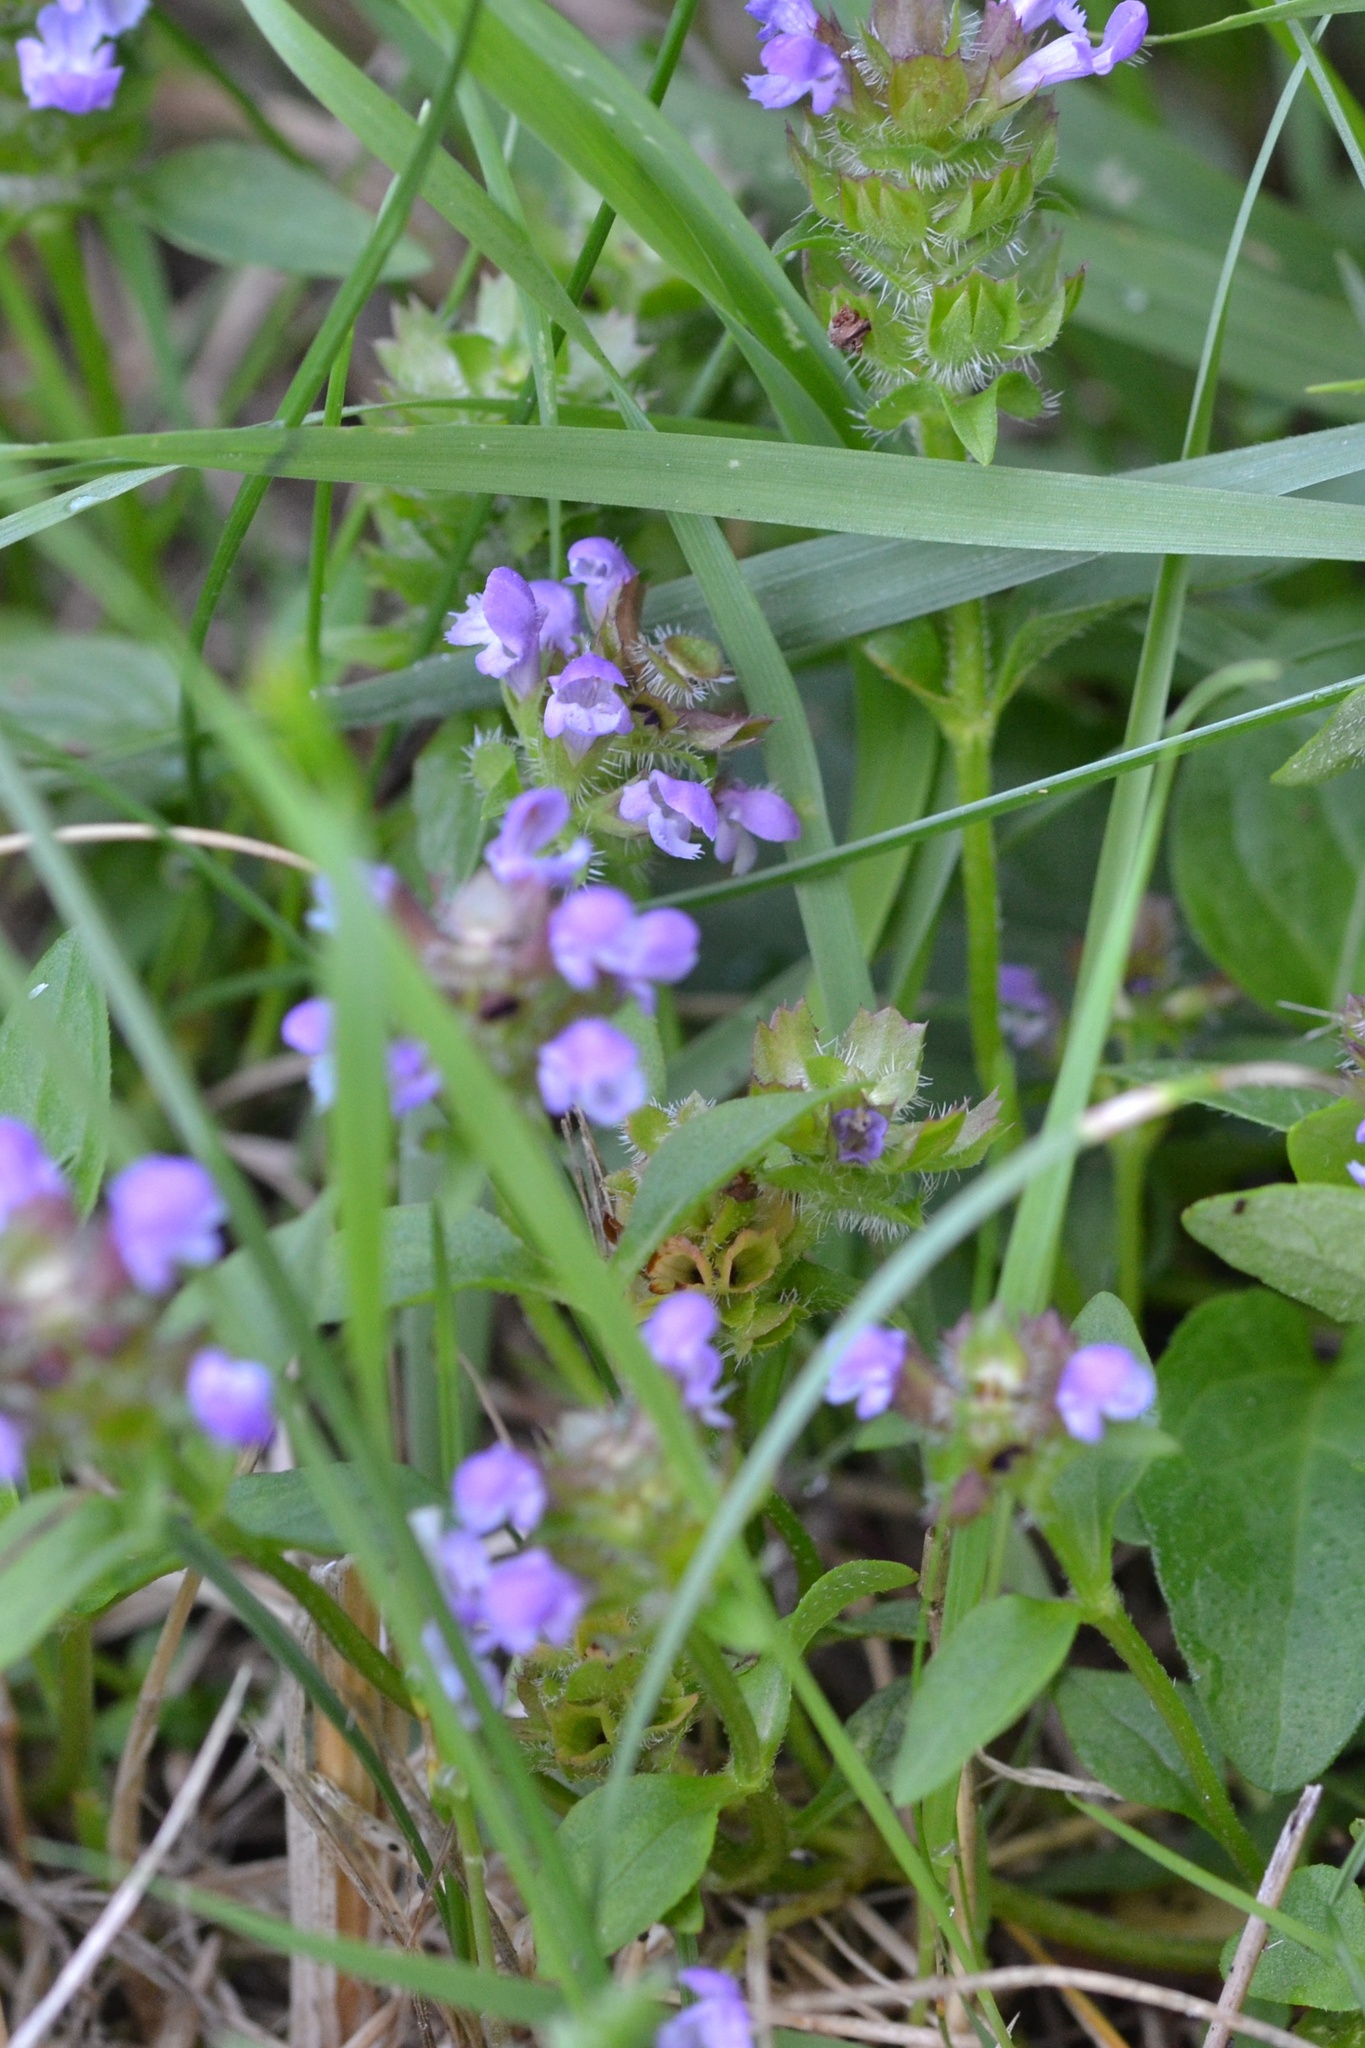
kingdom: Plantae
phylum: Tracheophyta
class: Magnoliopsida
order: Lamiales
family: Lamiaceae
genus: Prunella
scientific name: Prunella vulgaris
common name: Heal-all
